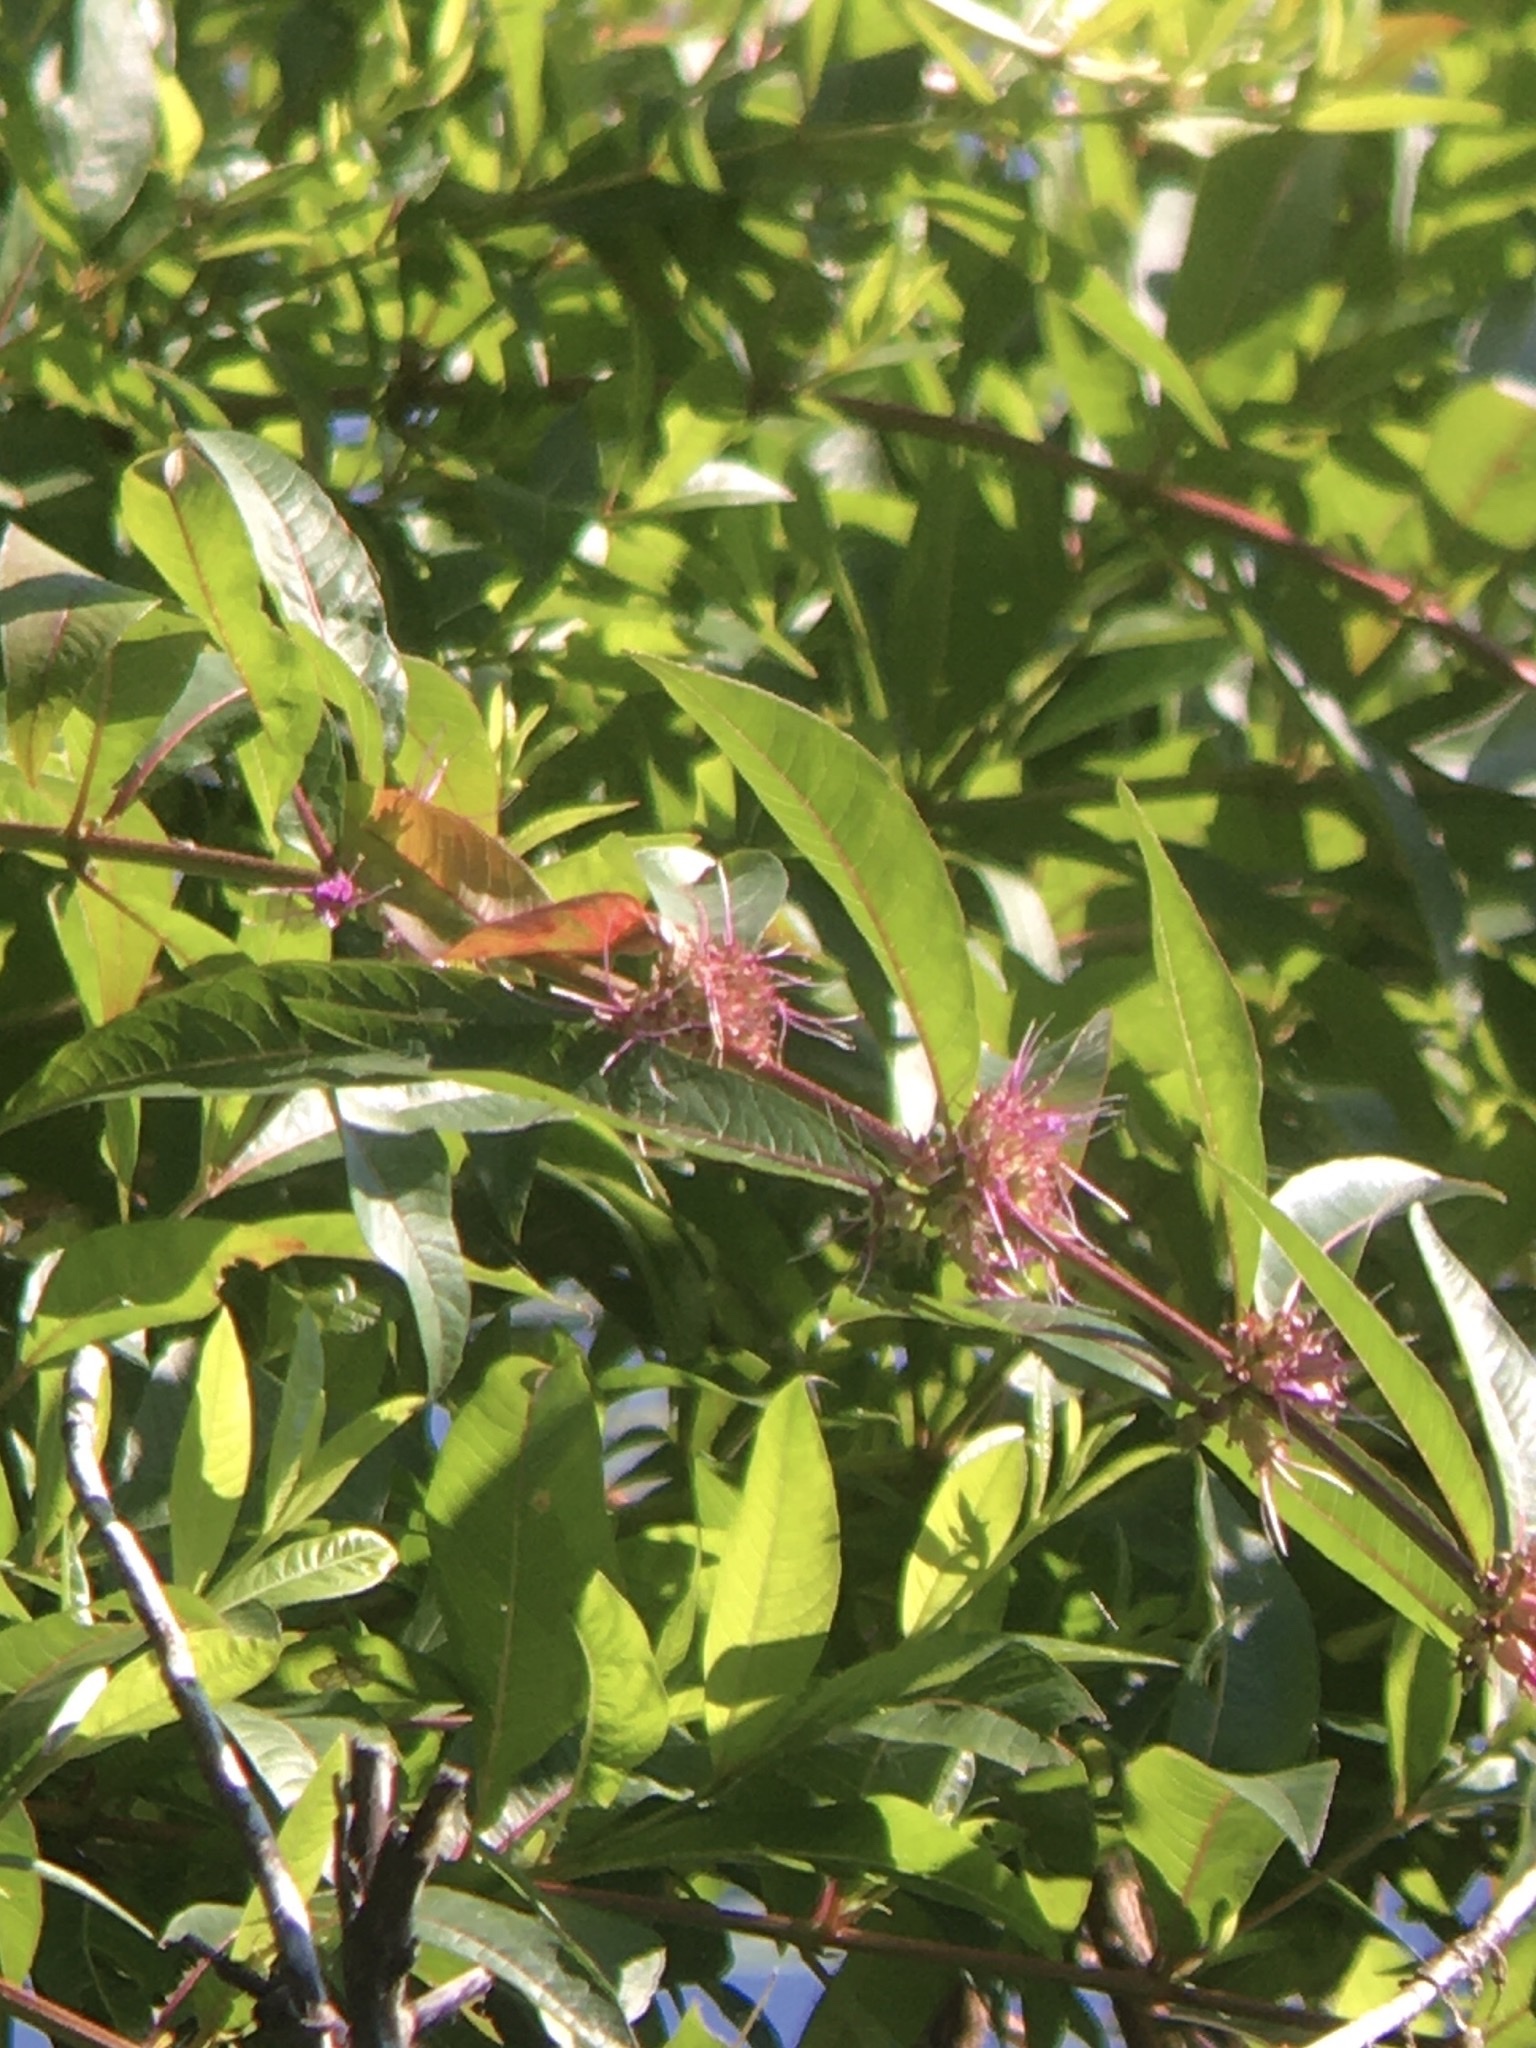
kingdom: Plantae
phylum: Tracheophyta
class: Magnoliopsida
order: Myrtales
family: Lythraceae
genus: Decodon
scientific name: Decodon verticillatus
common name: Hairy swamp loosestrife
